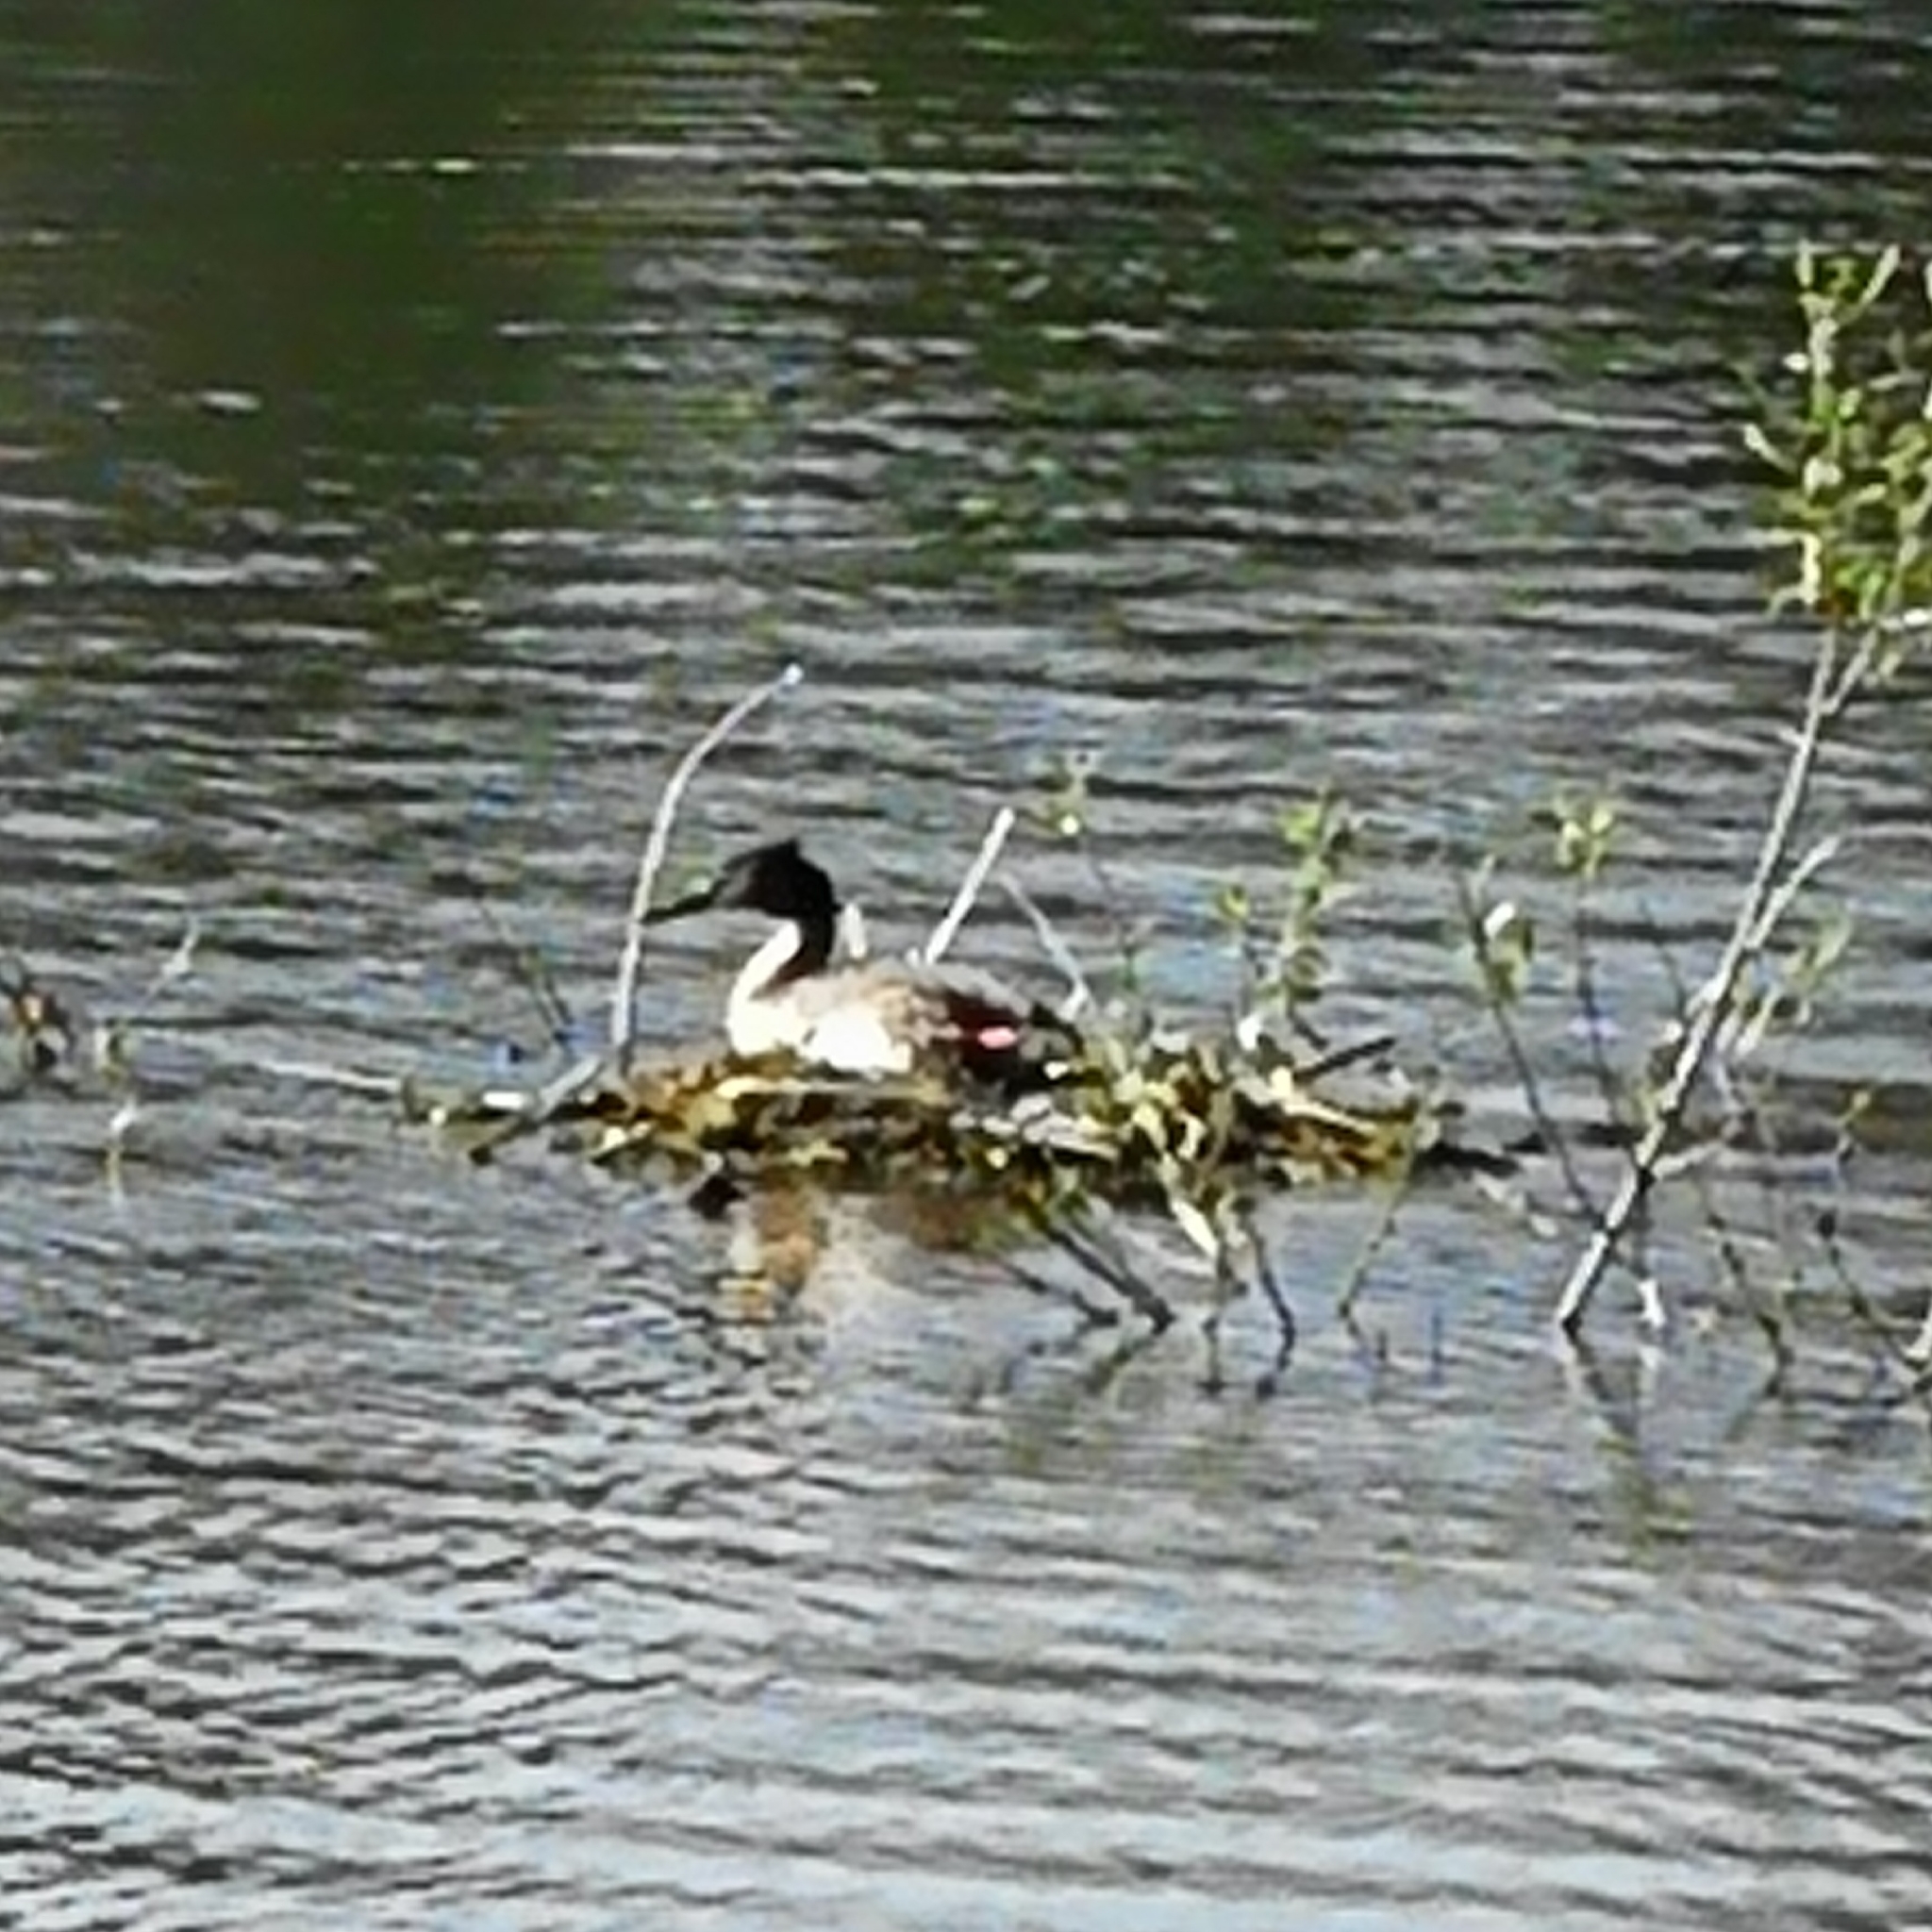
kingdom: Animalia
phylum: Chordata
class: Aves
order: Podicipediformes
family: Podicipedidae
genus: Podiceps
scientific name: Podiceps cristatus
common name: Great crested grebe
